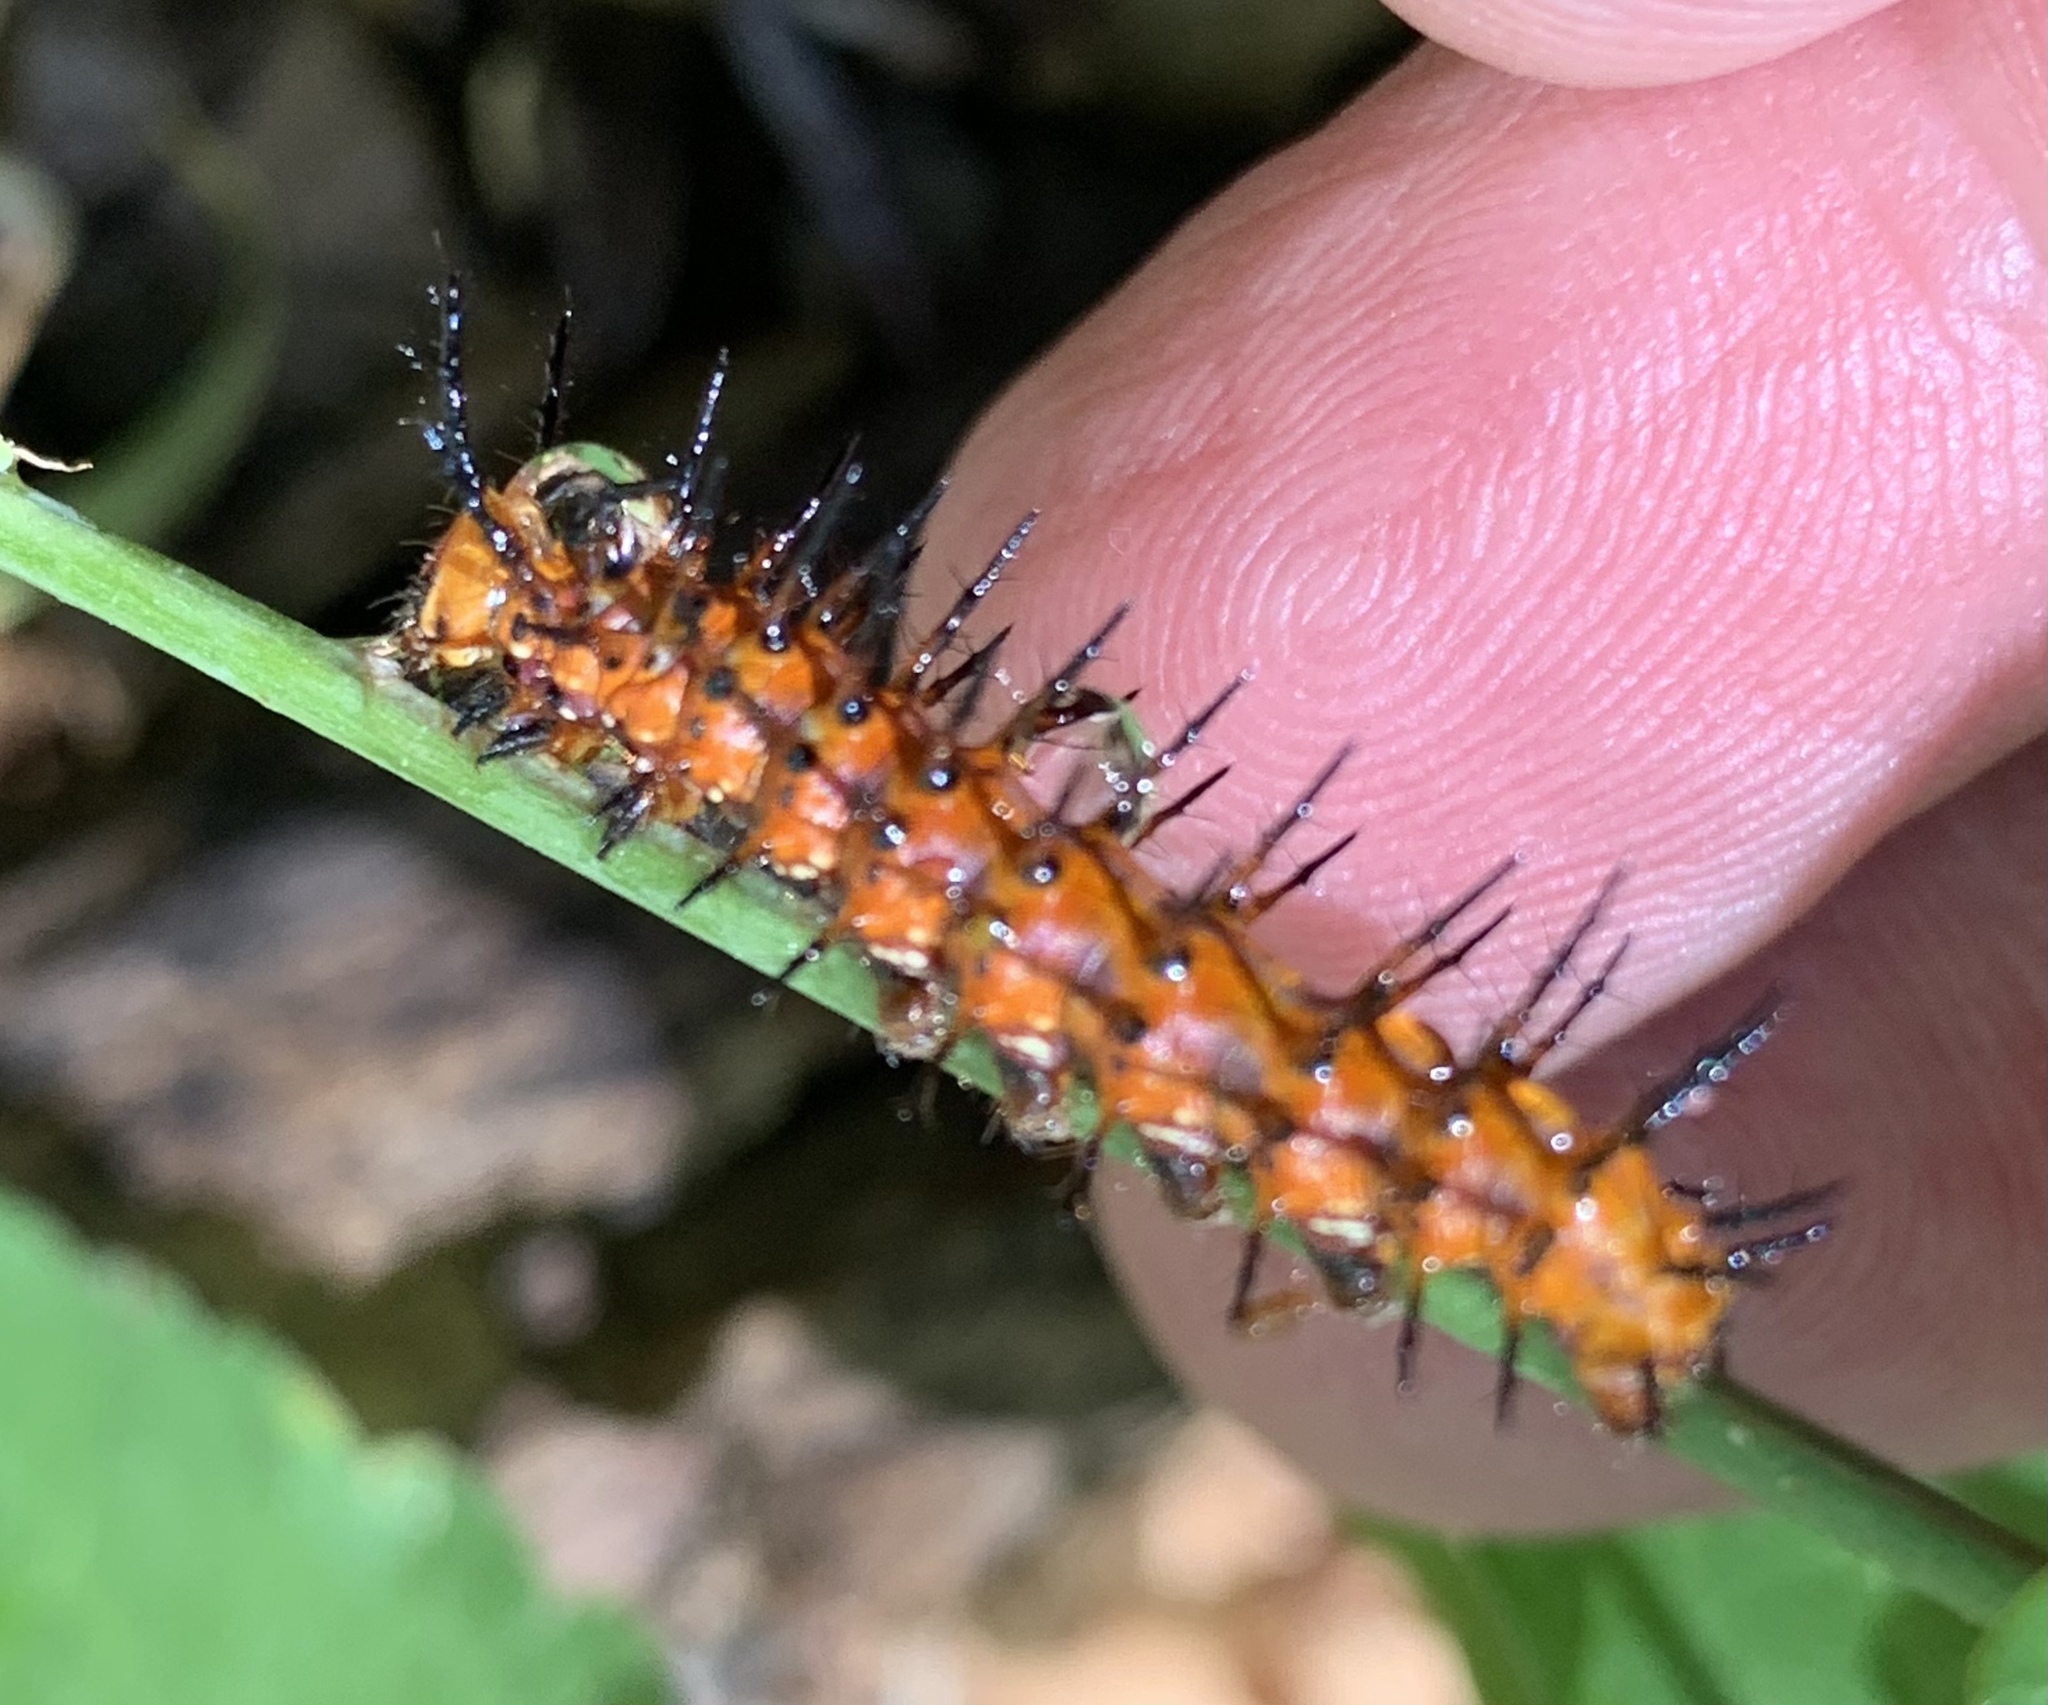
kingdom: Animalia
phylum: Arthropoda
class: Insecta
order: Lepidoptera
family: Nymphalidae
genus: Dione
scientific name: Dione vanillae
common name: Gulf fritillary
